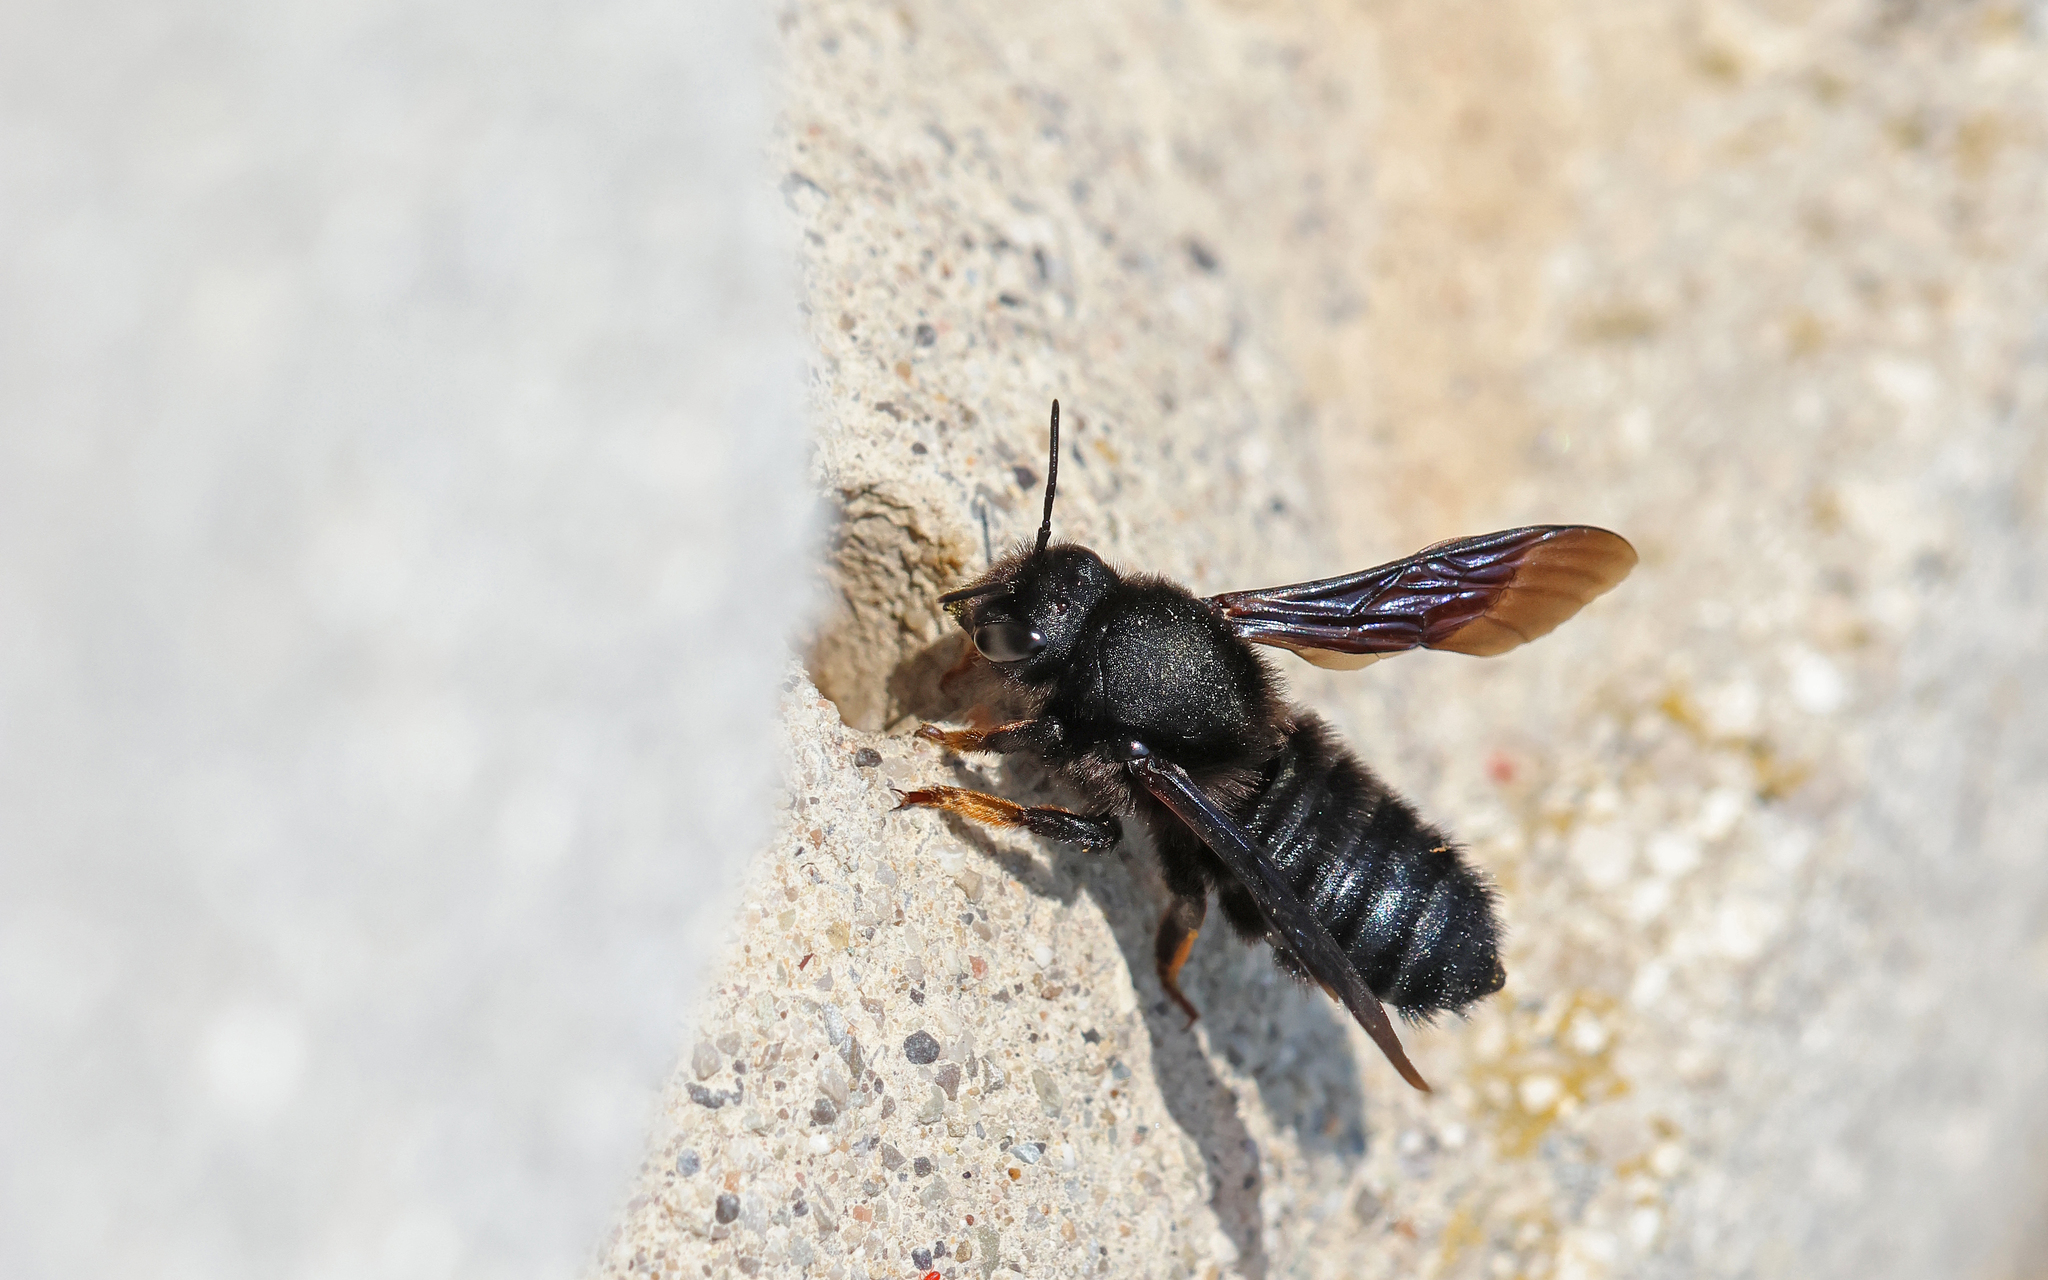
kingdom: Animalia
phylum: Arthropoda
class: Insecta
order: Hymenoptera
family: Megachilidae
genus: Megachile
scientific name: Megachile parietina
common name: Black mud bee
